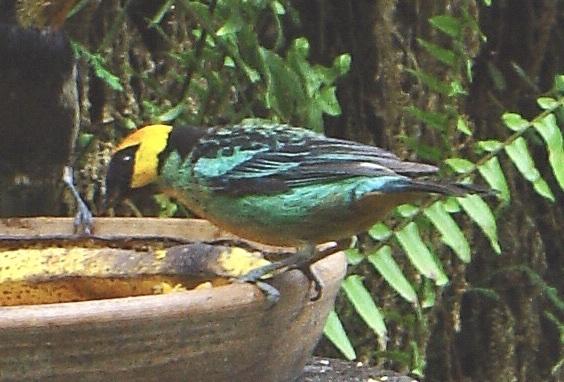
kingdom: Animalia
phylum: Chordata
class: Aves
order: Passeriformes
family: Thraupidae
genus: Tangara
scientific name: Tangara xanthocephala
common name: Saffron-crowned tanager
